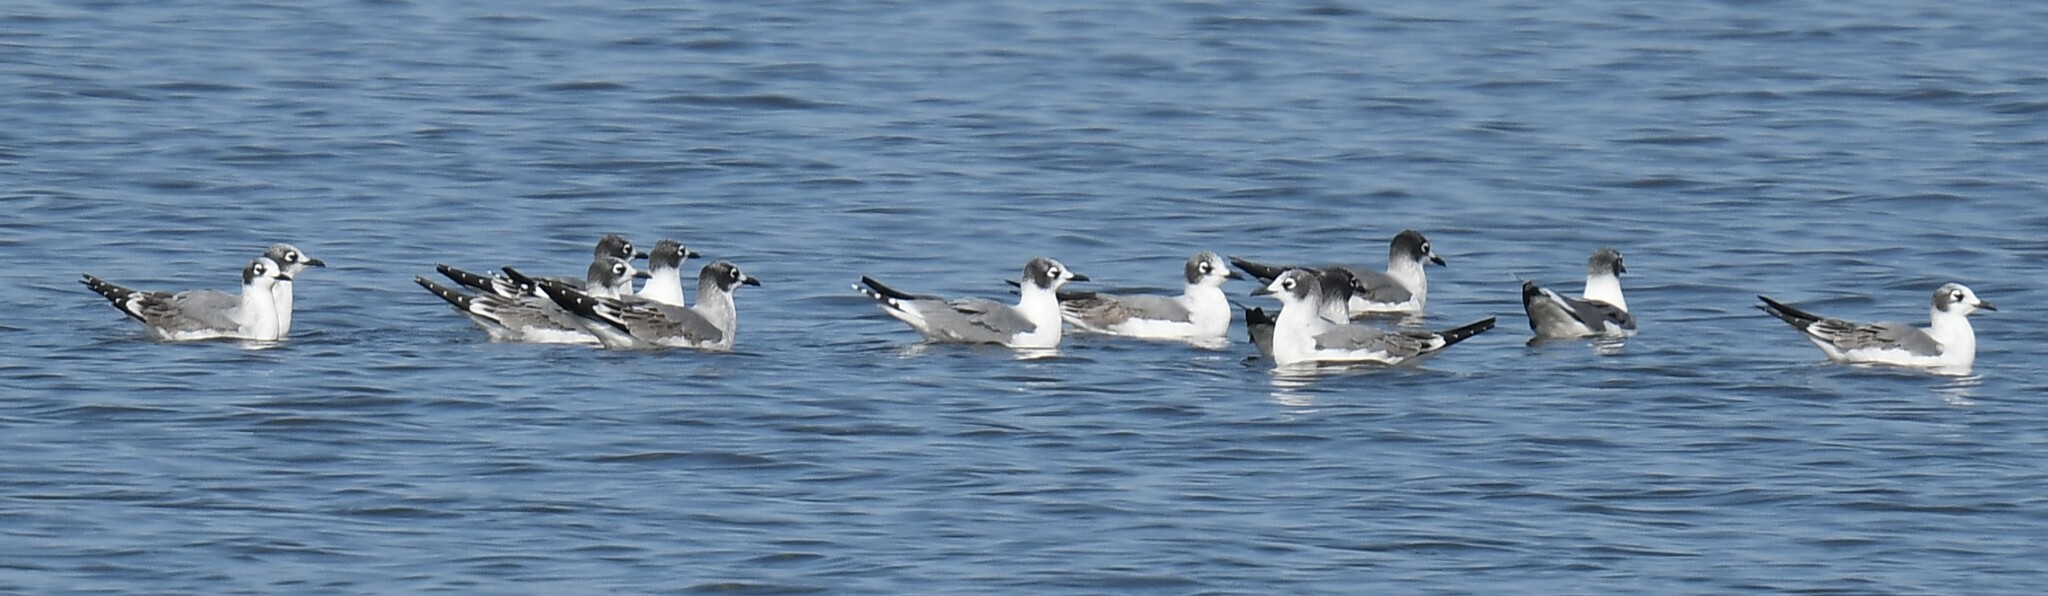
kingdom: Animalia
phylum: Chordata
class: Aves
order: Charadriiformes
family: Laridae
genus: Leucophaeus
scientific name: Leucophaeus pipixcan
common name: Franklin's gull
